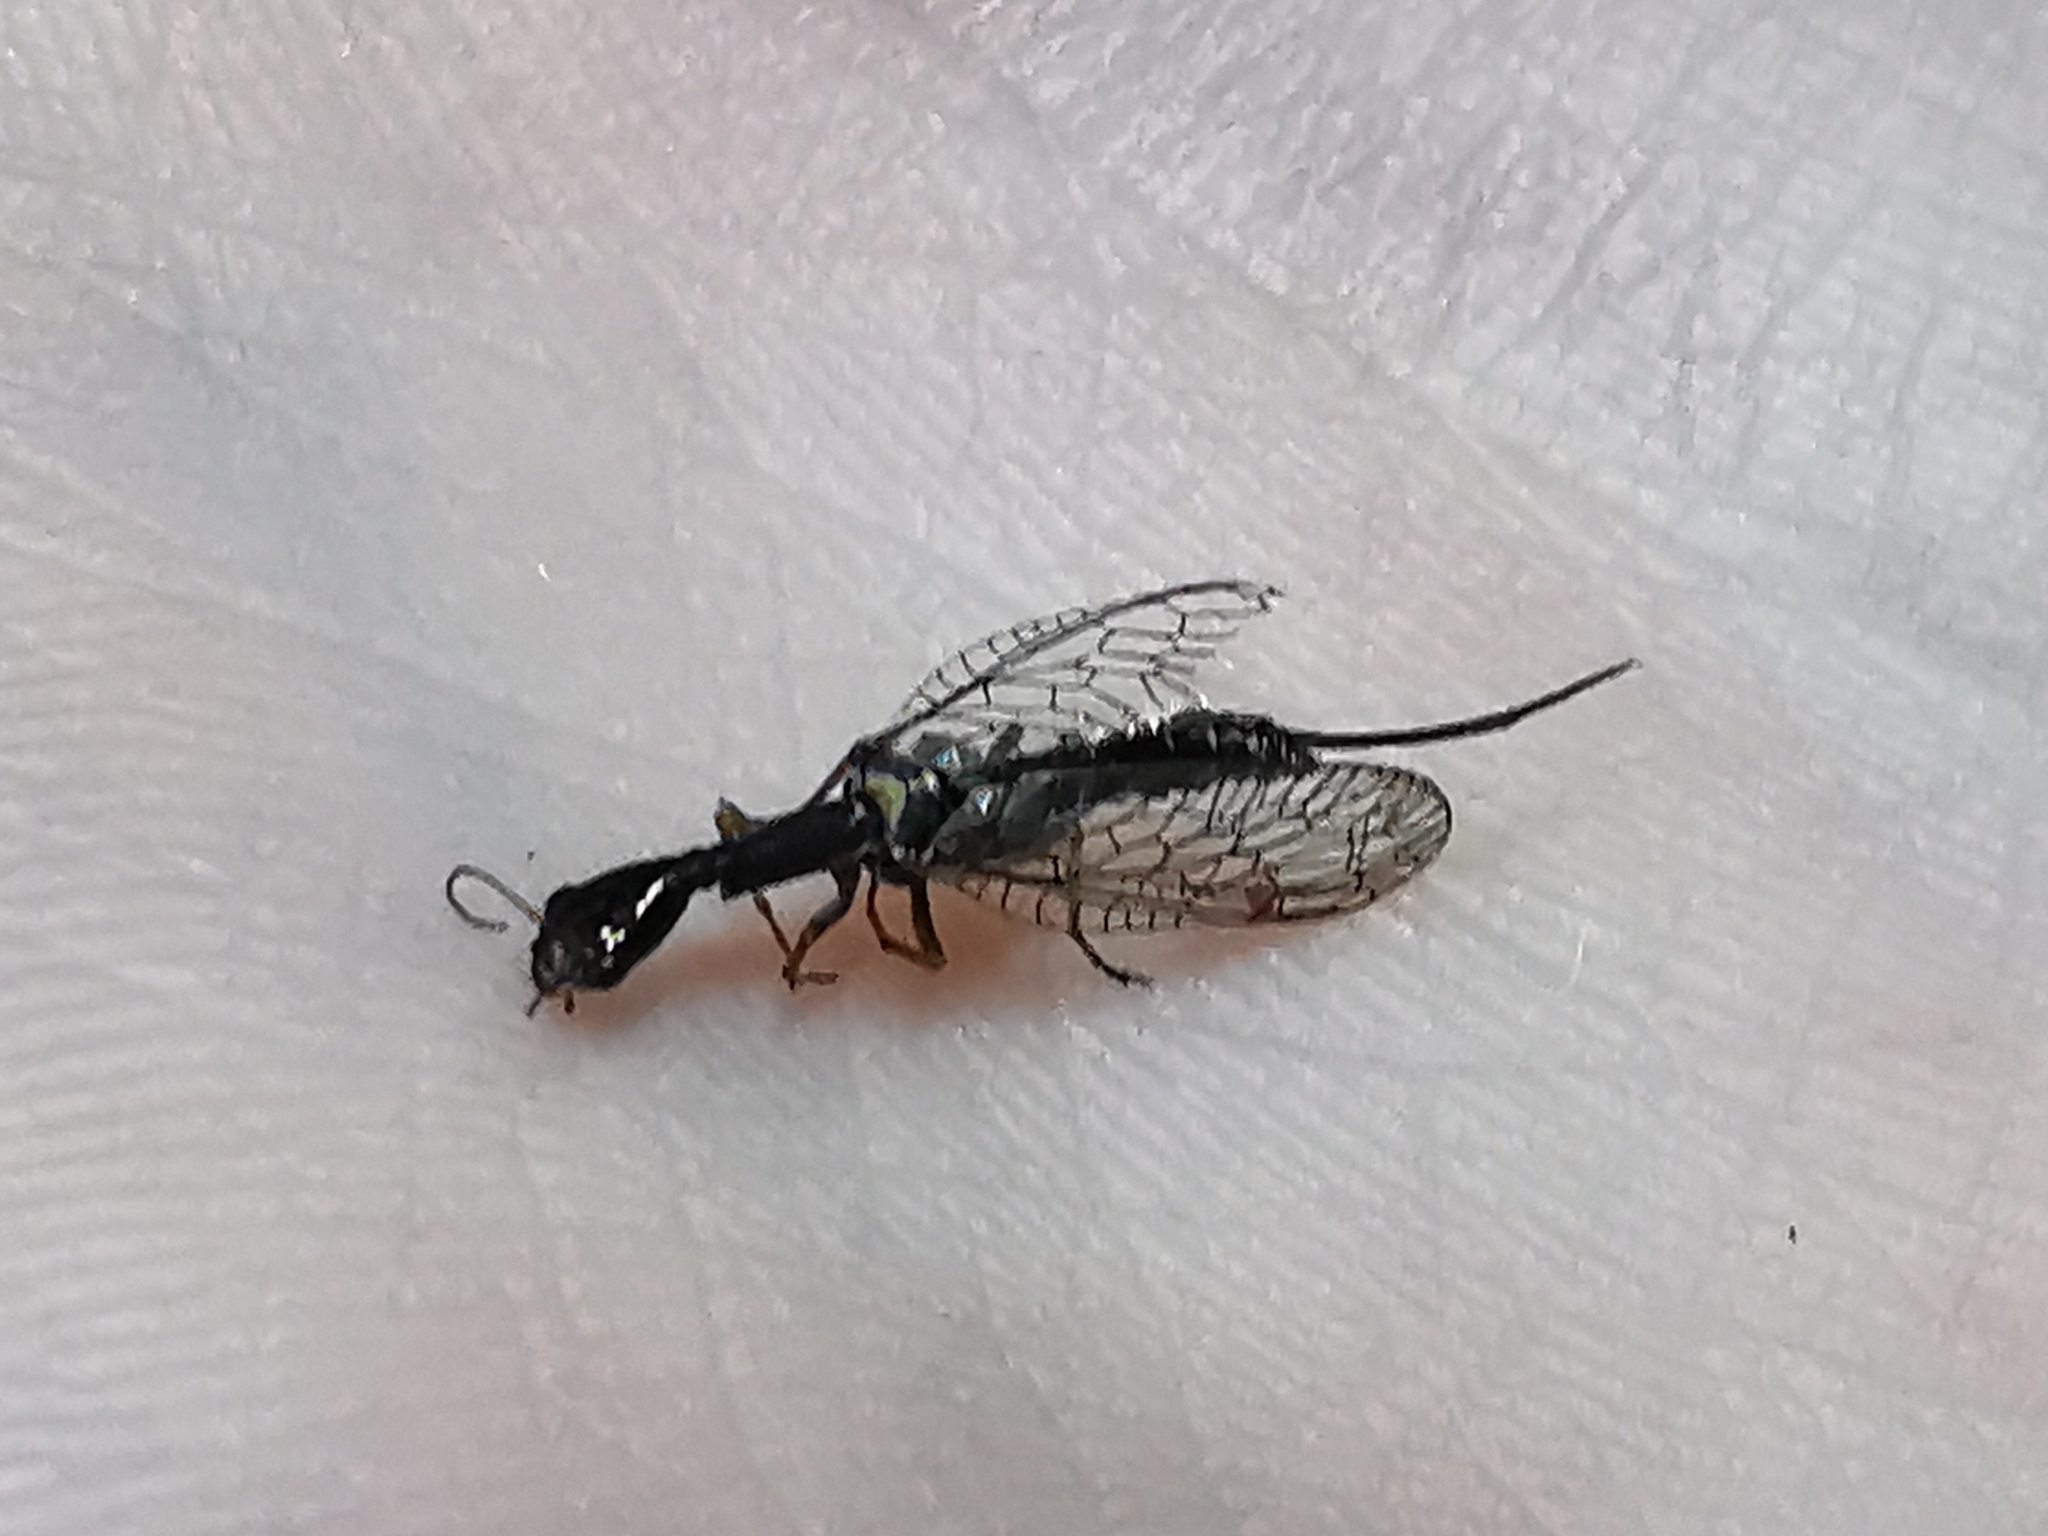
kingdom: Animalia
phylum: Arthropoda
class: Insecta
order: Raphidioptera
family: Raphidiidae
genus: Xanthostigma
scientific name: Xanthostigma xanthostigma
